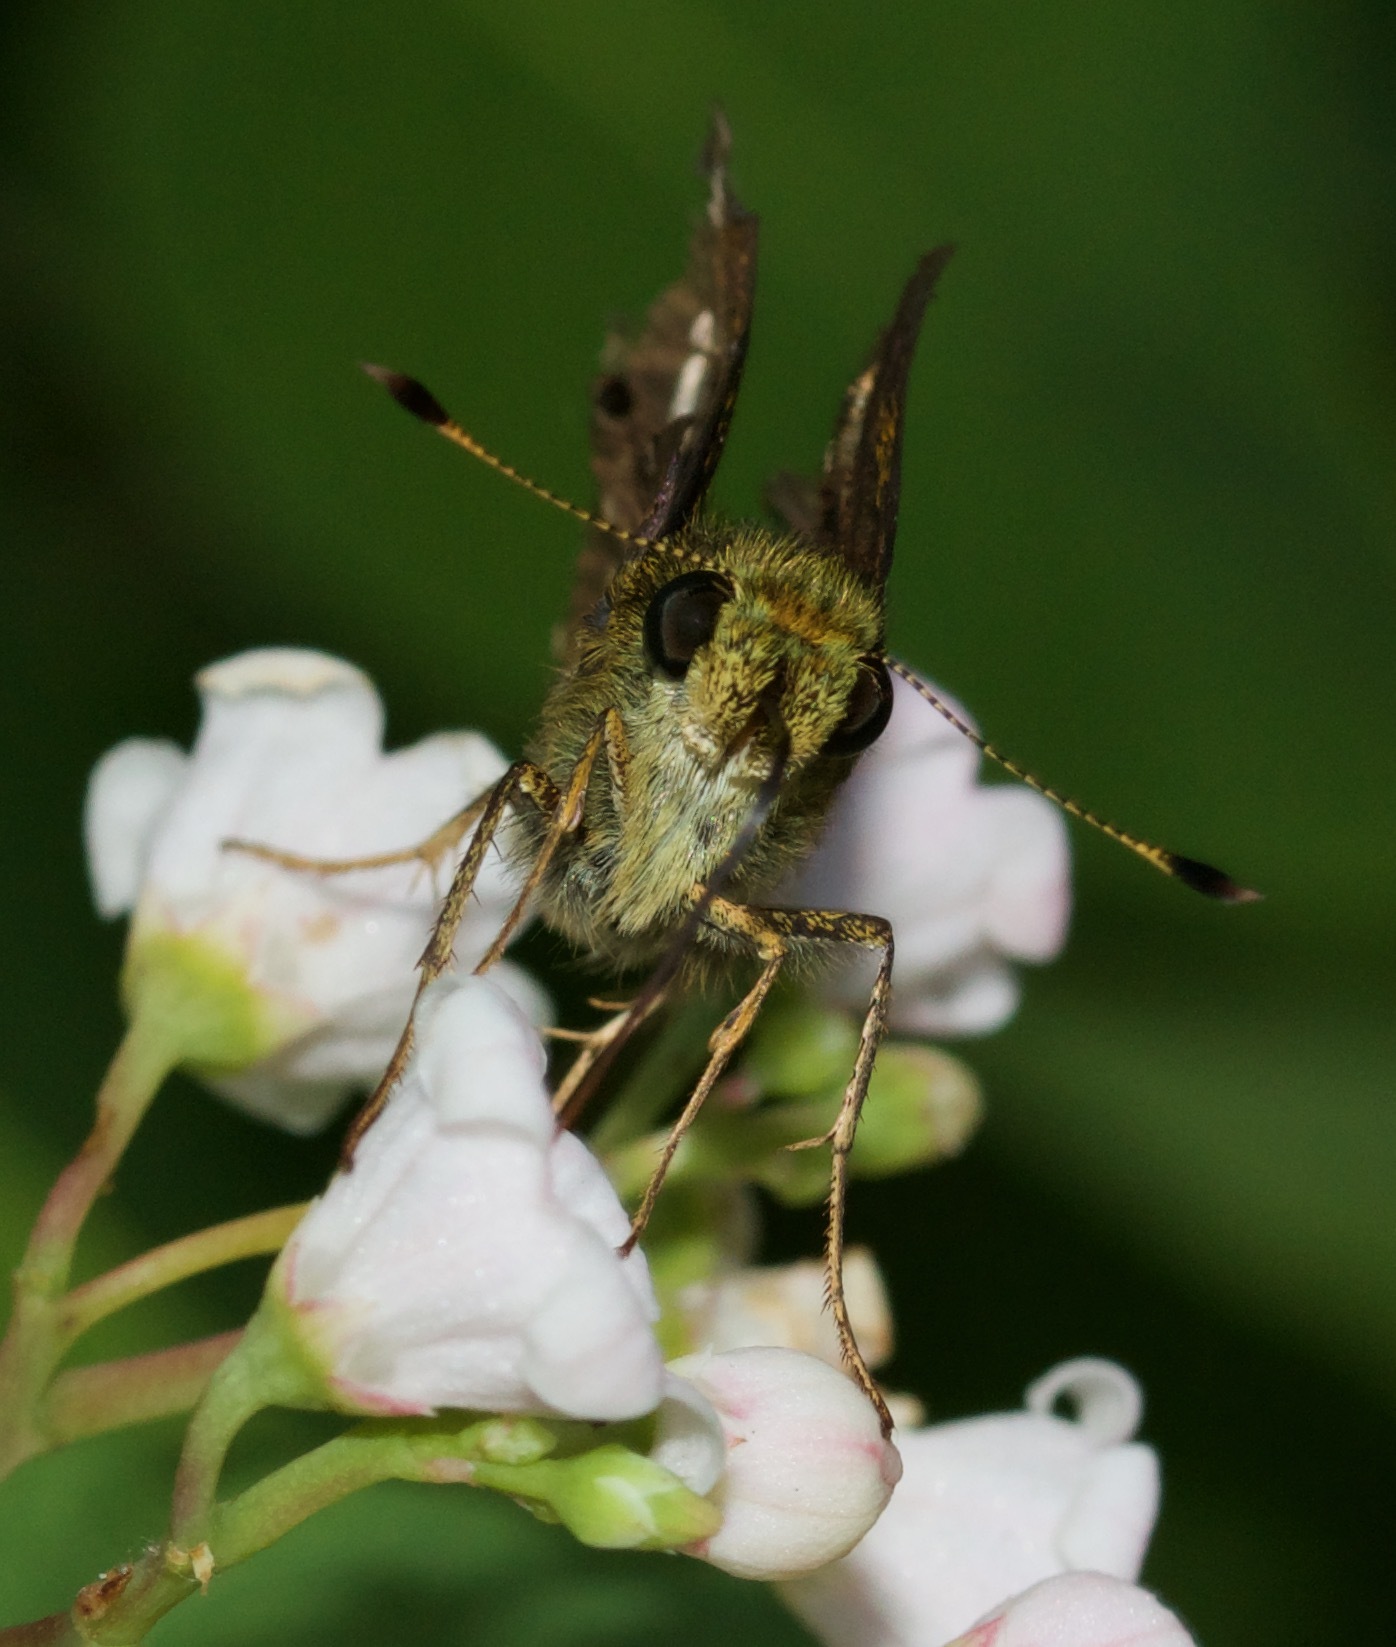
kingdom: Animalia
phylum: Arthropoda
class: Insecta
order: Lepidoptera
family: Hesperiidae
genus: Vernia
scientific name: Vernia verna
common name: Little glassywing
